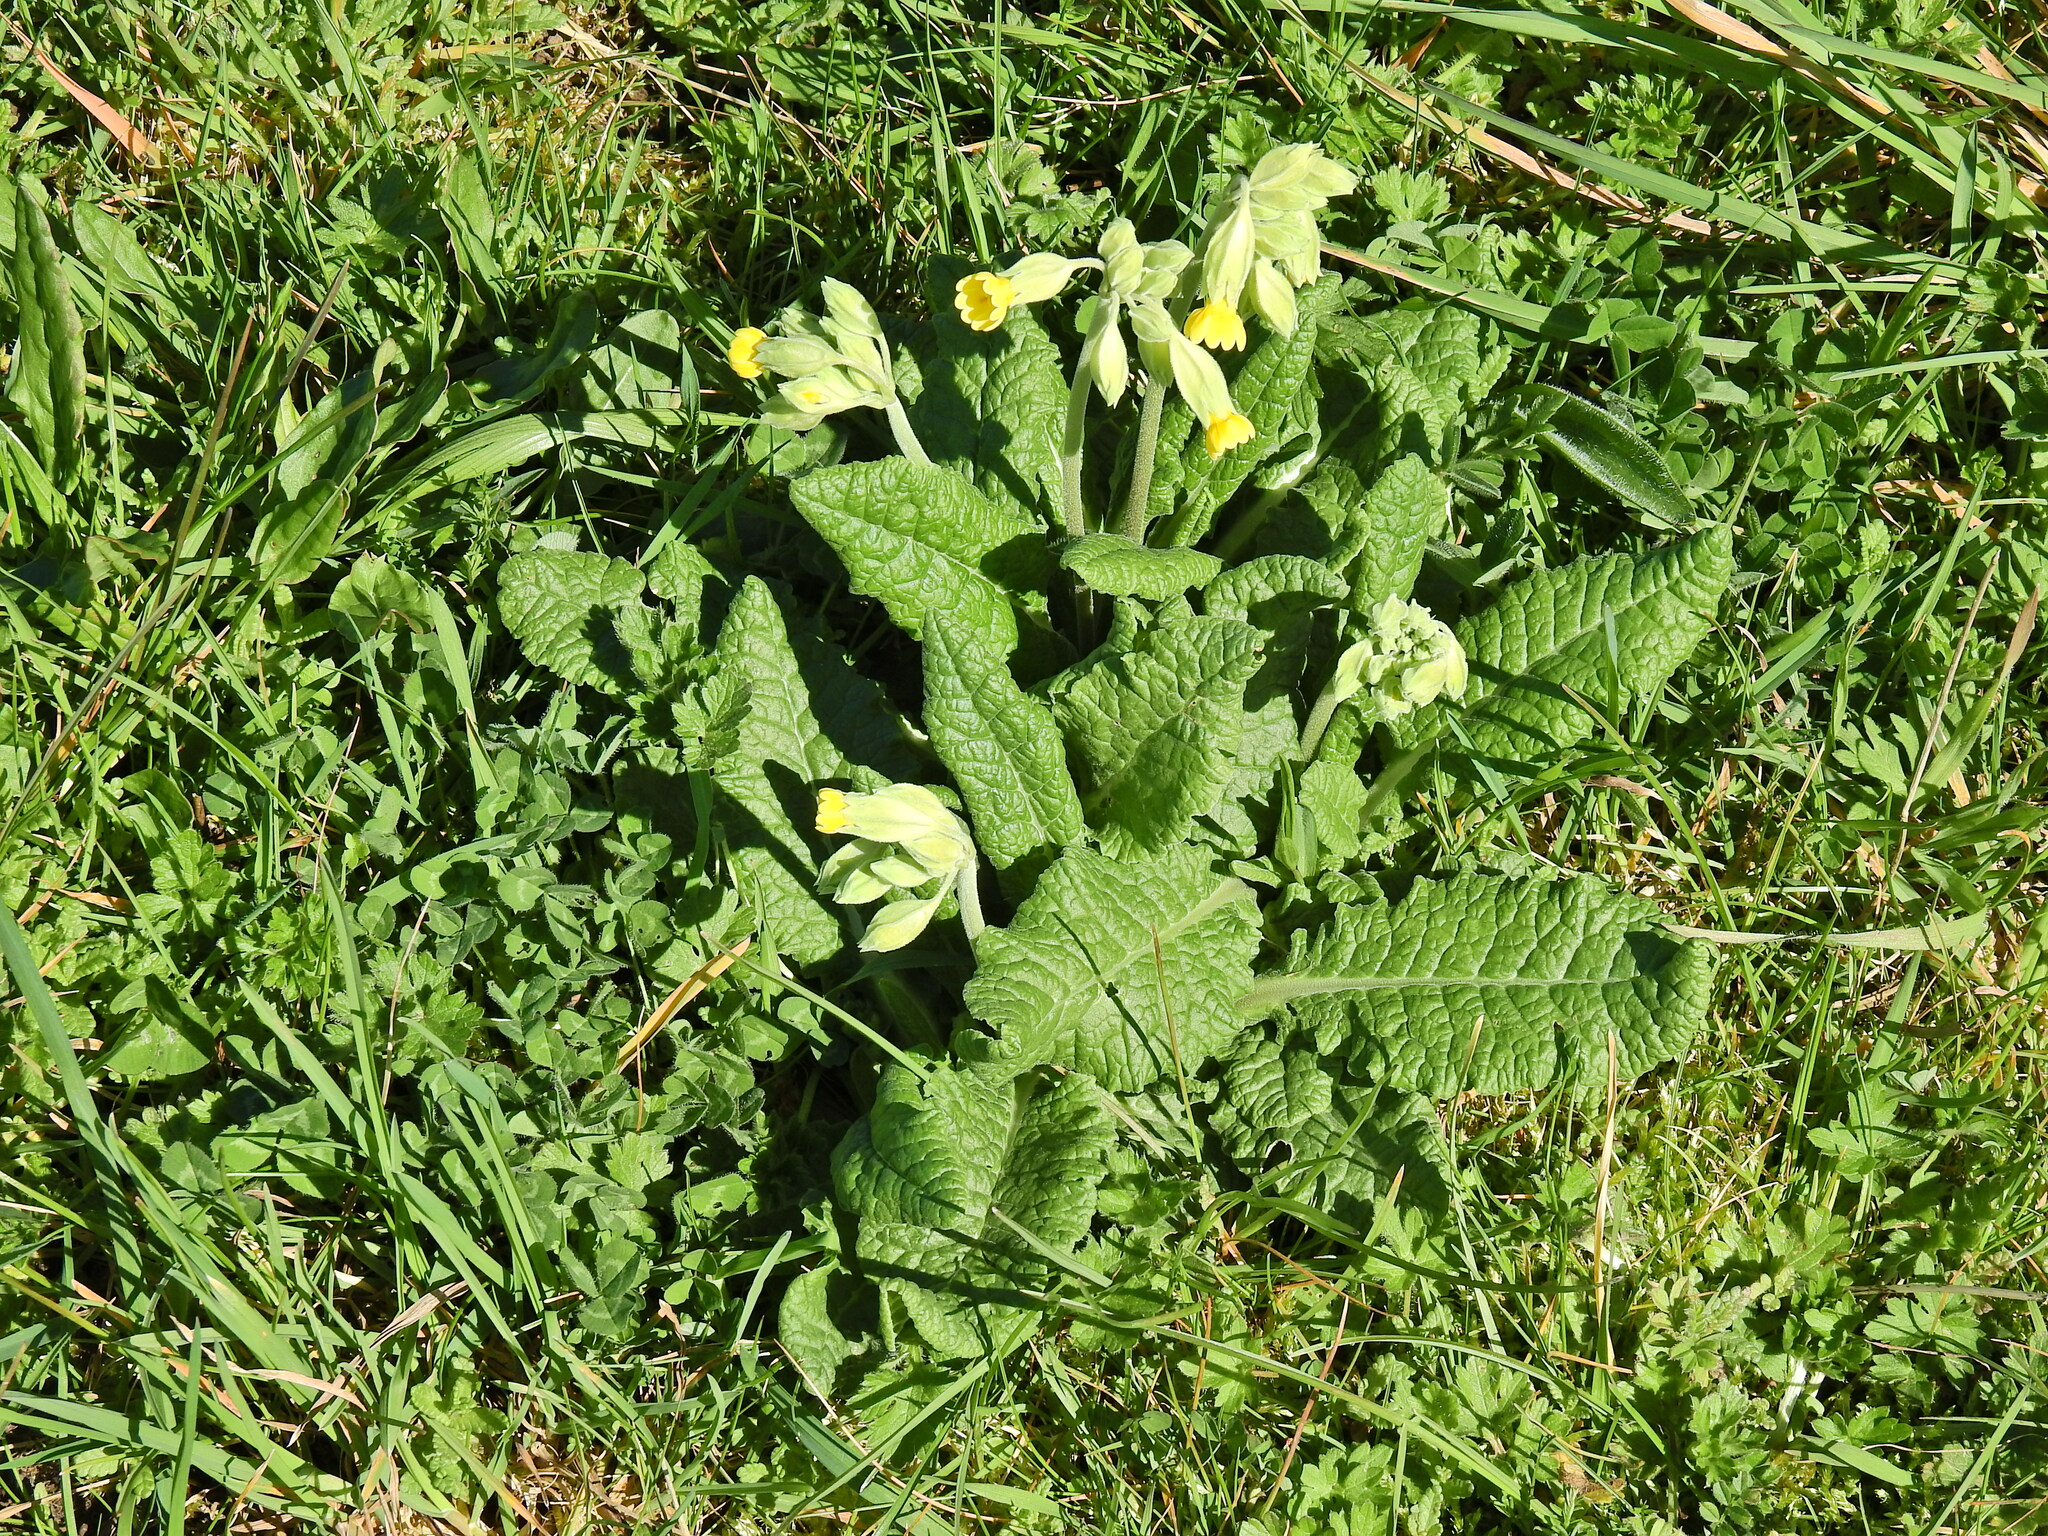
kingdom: Plantae
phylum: Tracheophyta
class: Magnoliopsida
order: Ericales
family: Primulaceae
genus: Primula
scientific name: Primula veris
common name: Cowslip
